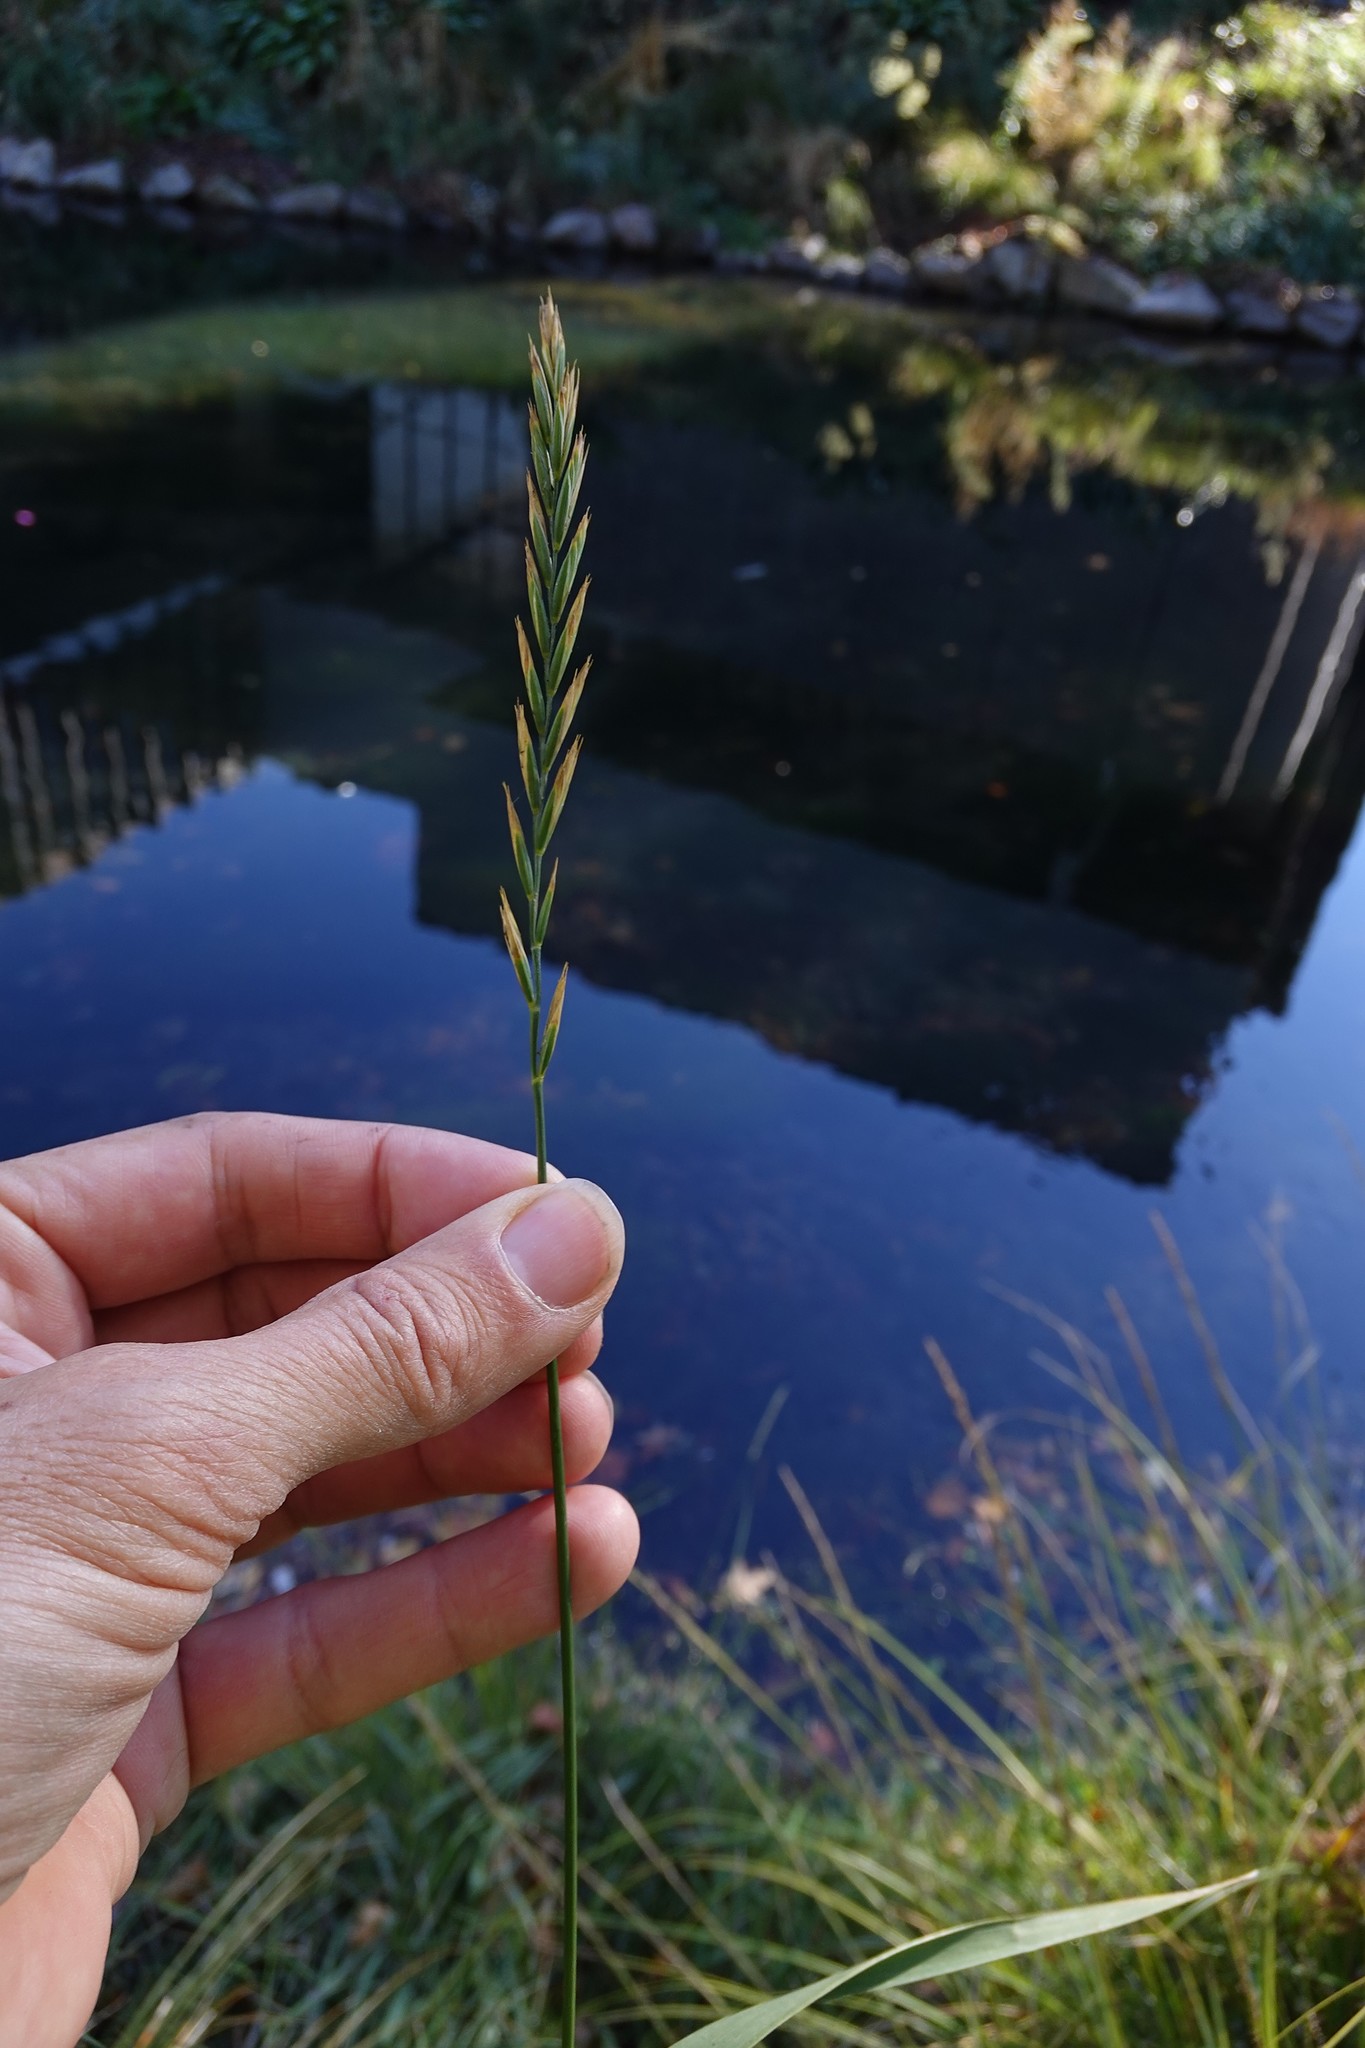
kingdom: Plantae
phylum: Tracheophyta
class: Liliopsida
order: Poales
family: Poaceae
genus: Elymus
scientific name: Elymus repens
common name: Quackgrass
